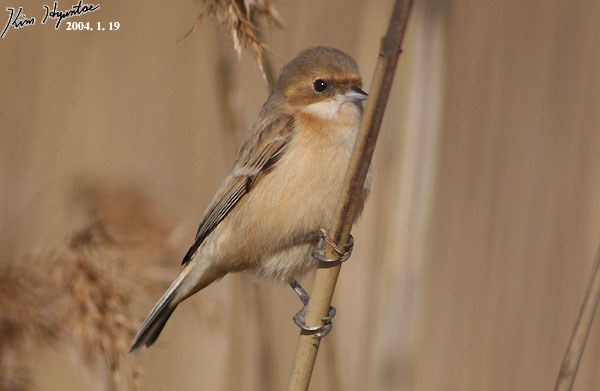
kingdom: Animalia
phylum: Chordata
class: Aves
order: Passeriformes
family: Remizidae
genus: Remiz
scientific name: Remiz consobrinus
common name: Chinese penduline tit
